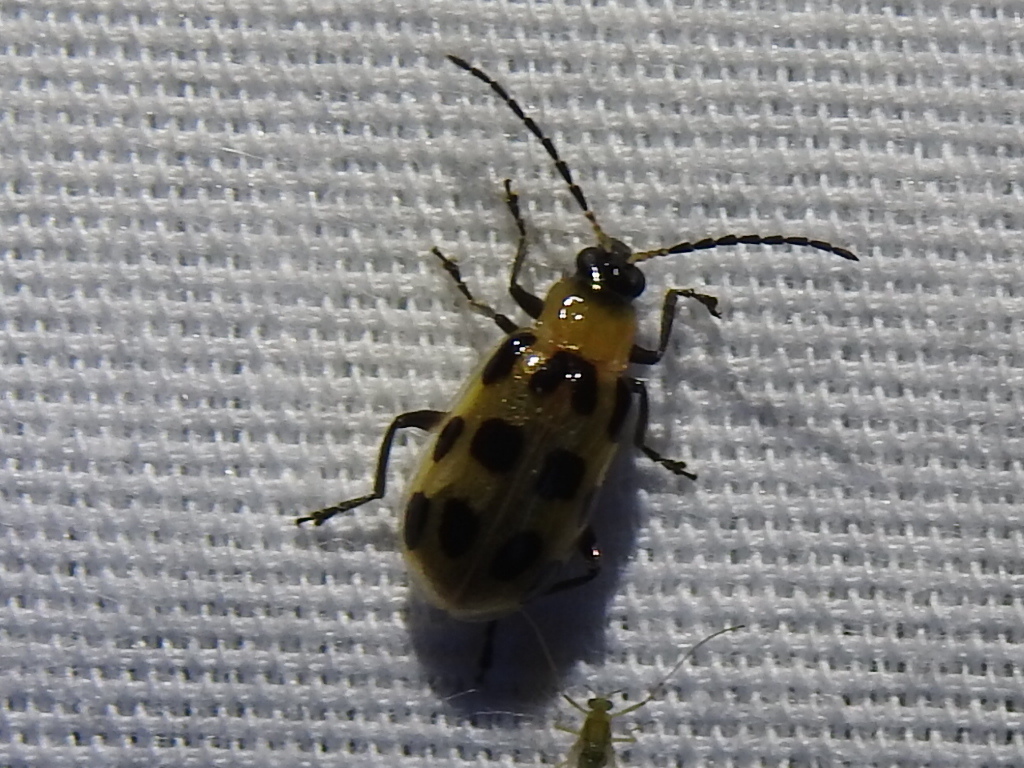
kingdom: Animalia
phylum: Arthropoda
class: Insecta
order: Coleoptera
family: Chrysomelidae
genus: Diabrotica
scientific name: Diabrotica undecimpunctata
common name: Spotted cucumber beetle
